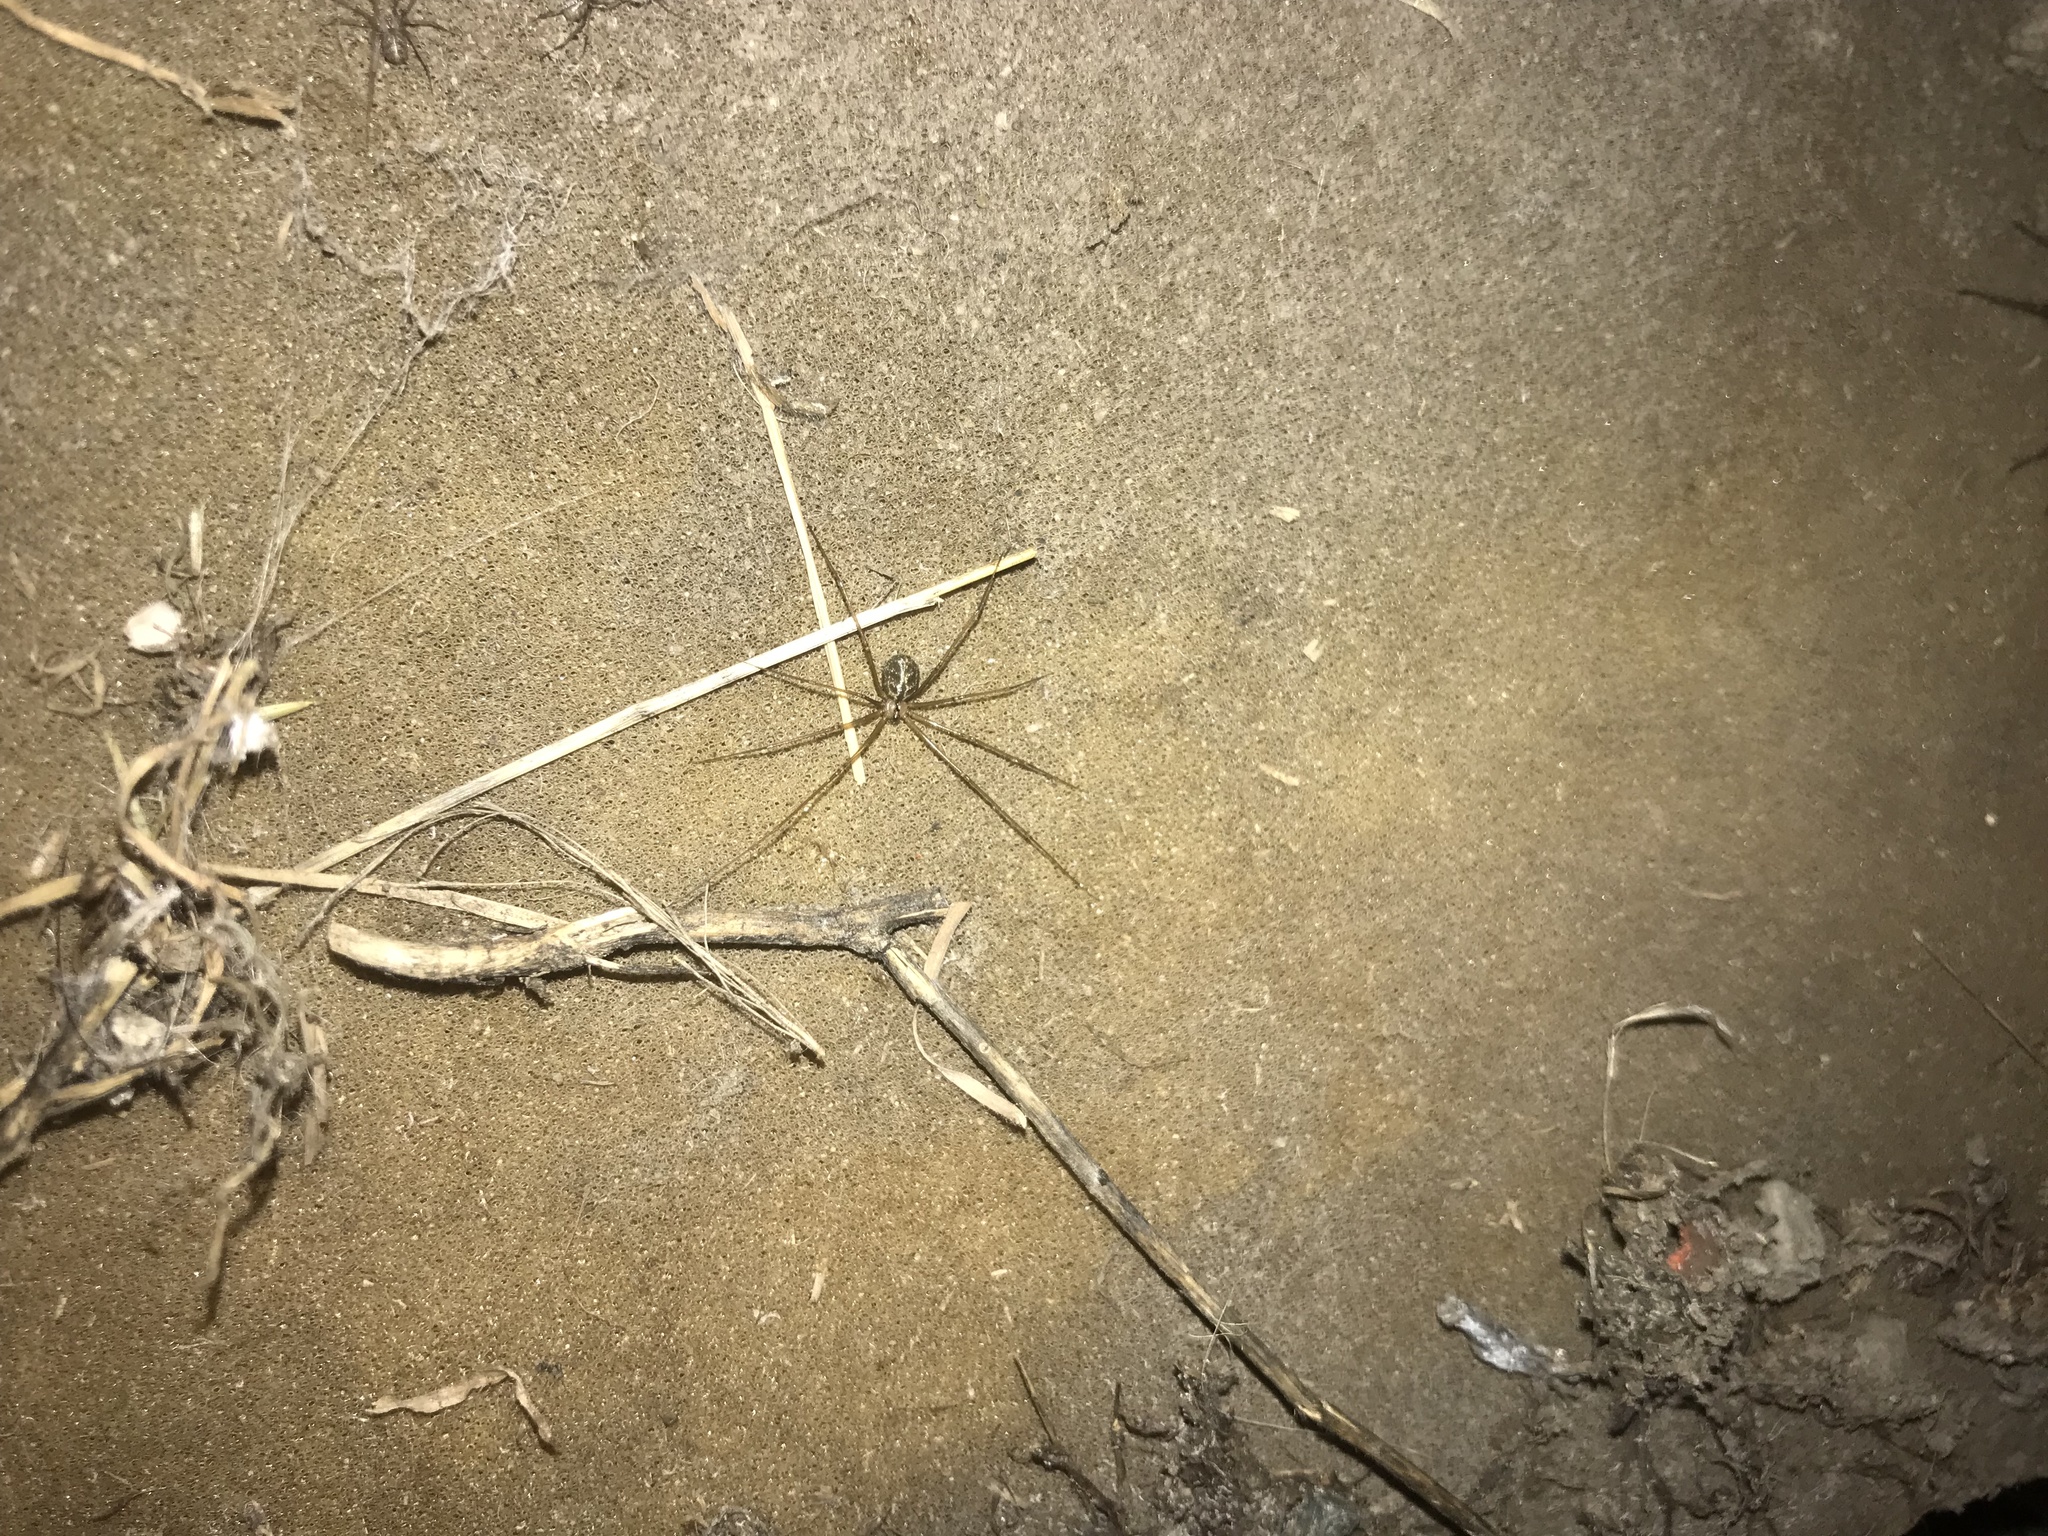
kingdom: Animalia
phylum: Arthropoda
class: Arachnida
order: Araneae
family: Pholcidae
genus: Psilochorus
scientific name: Psilochorus hesperus
